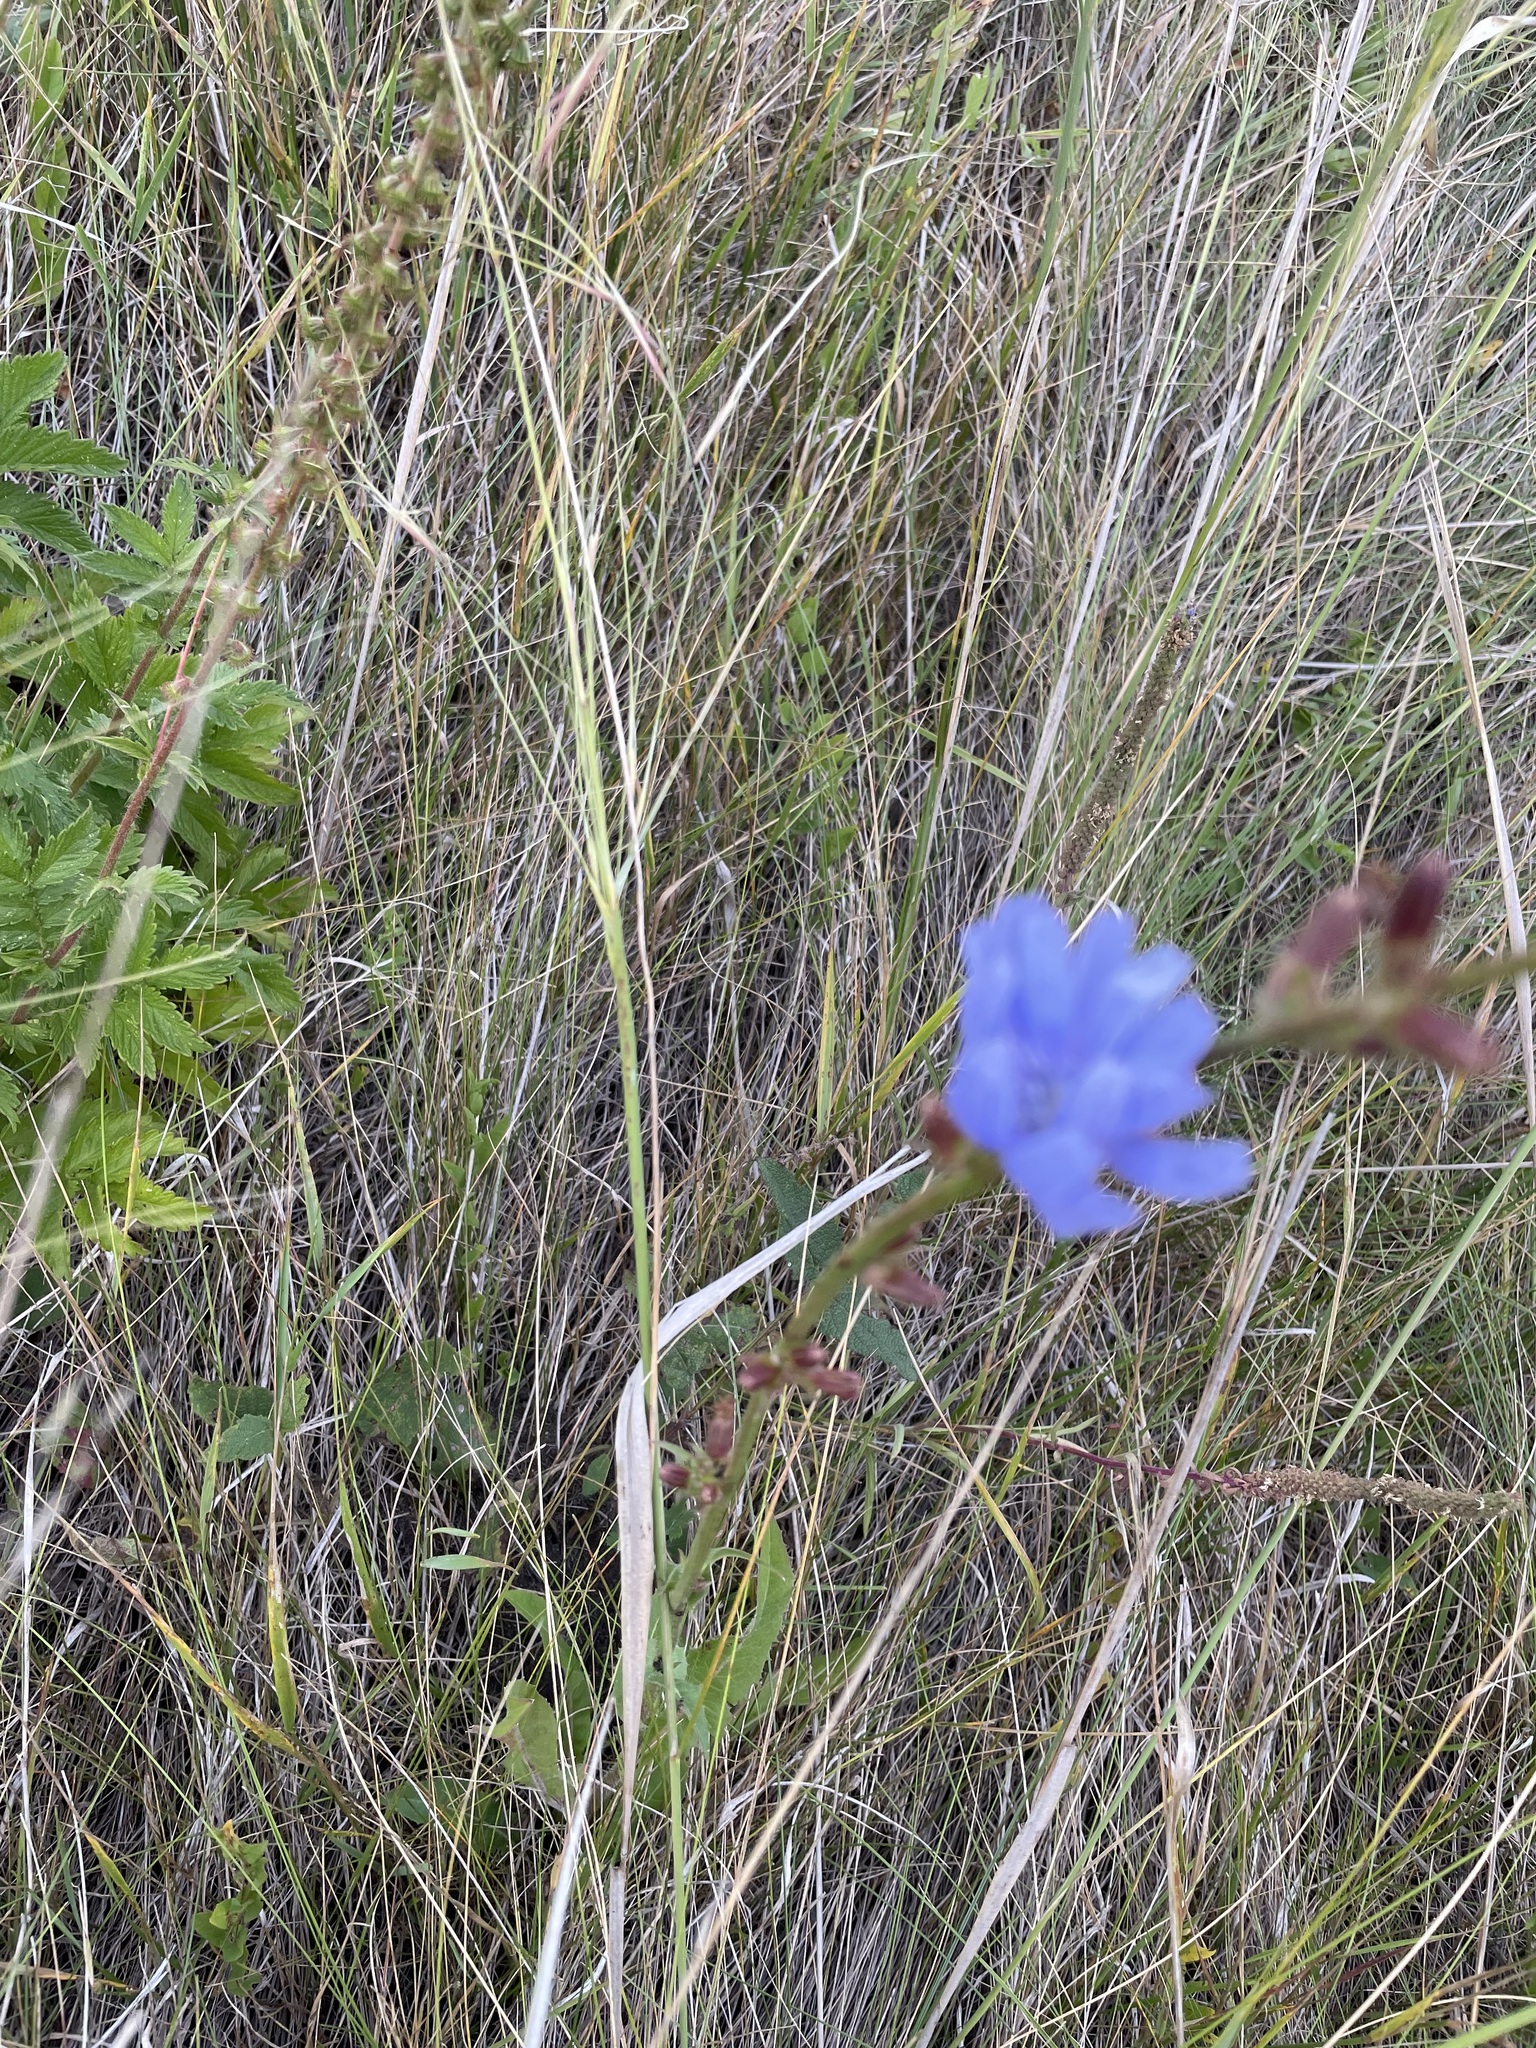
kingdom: Plantae
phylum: Tracheophyta
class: Magnoliopsida
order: Asterales
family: Asteraceae
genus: Cichorium
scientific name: Cichorium intybus
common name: Chicory
